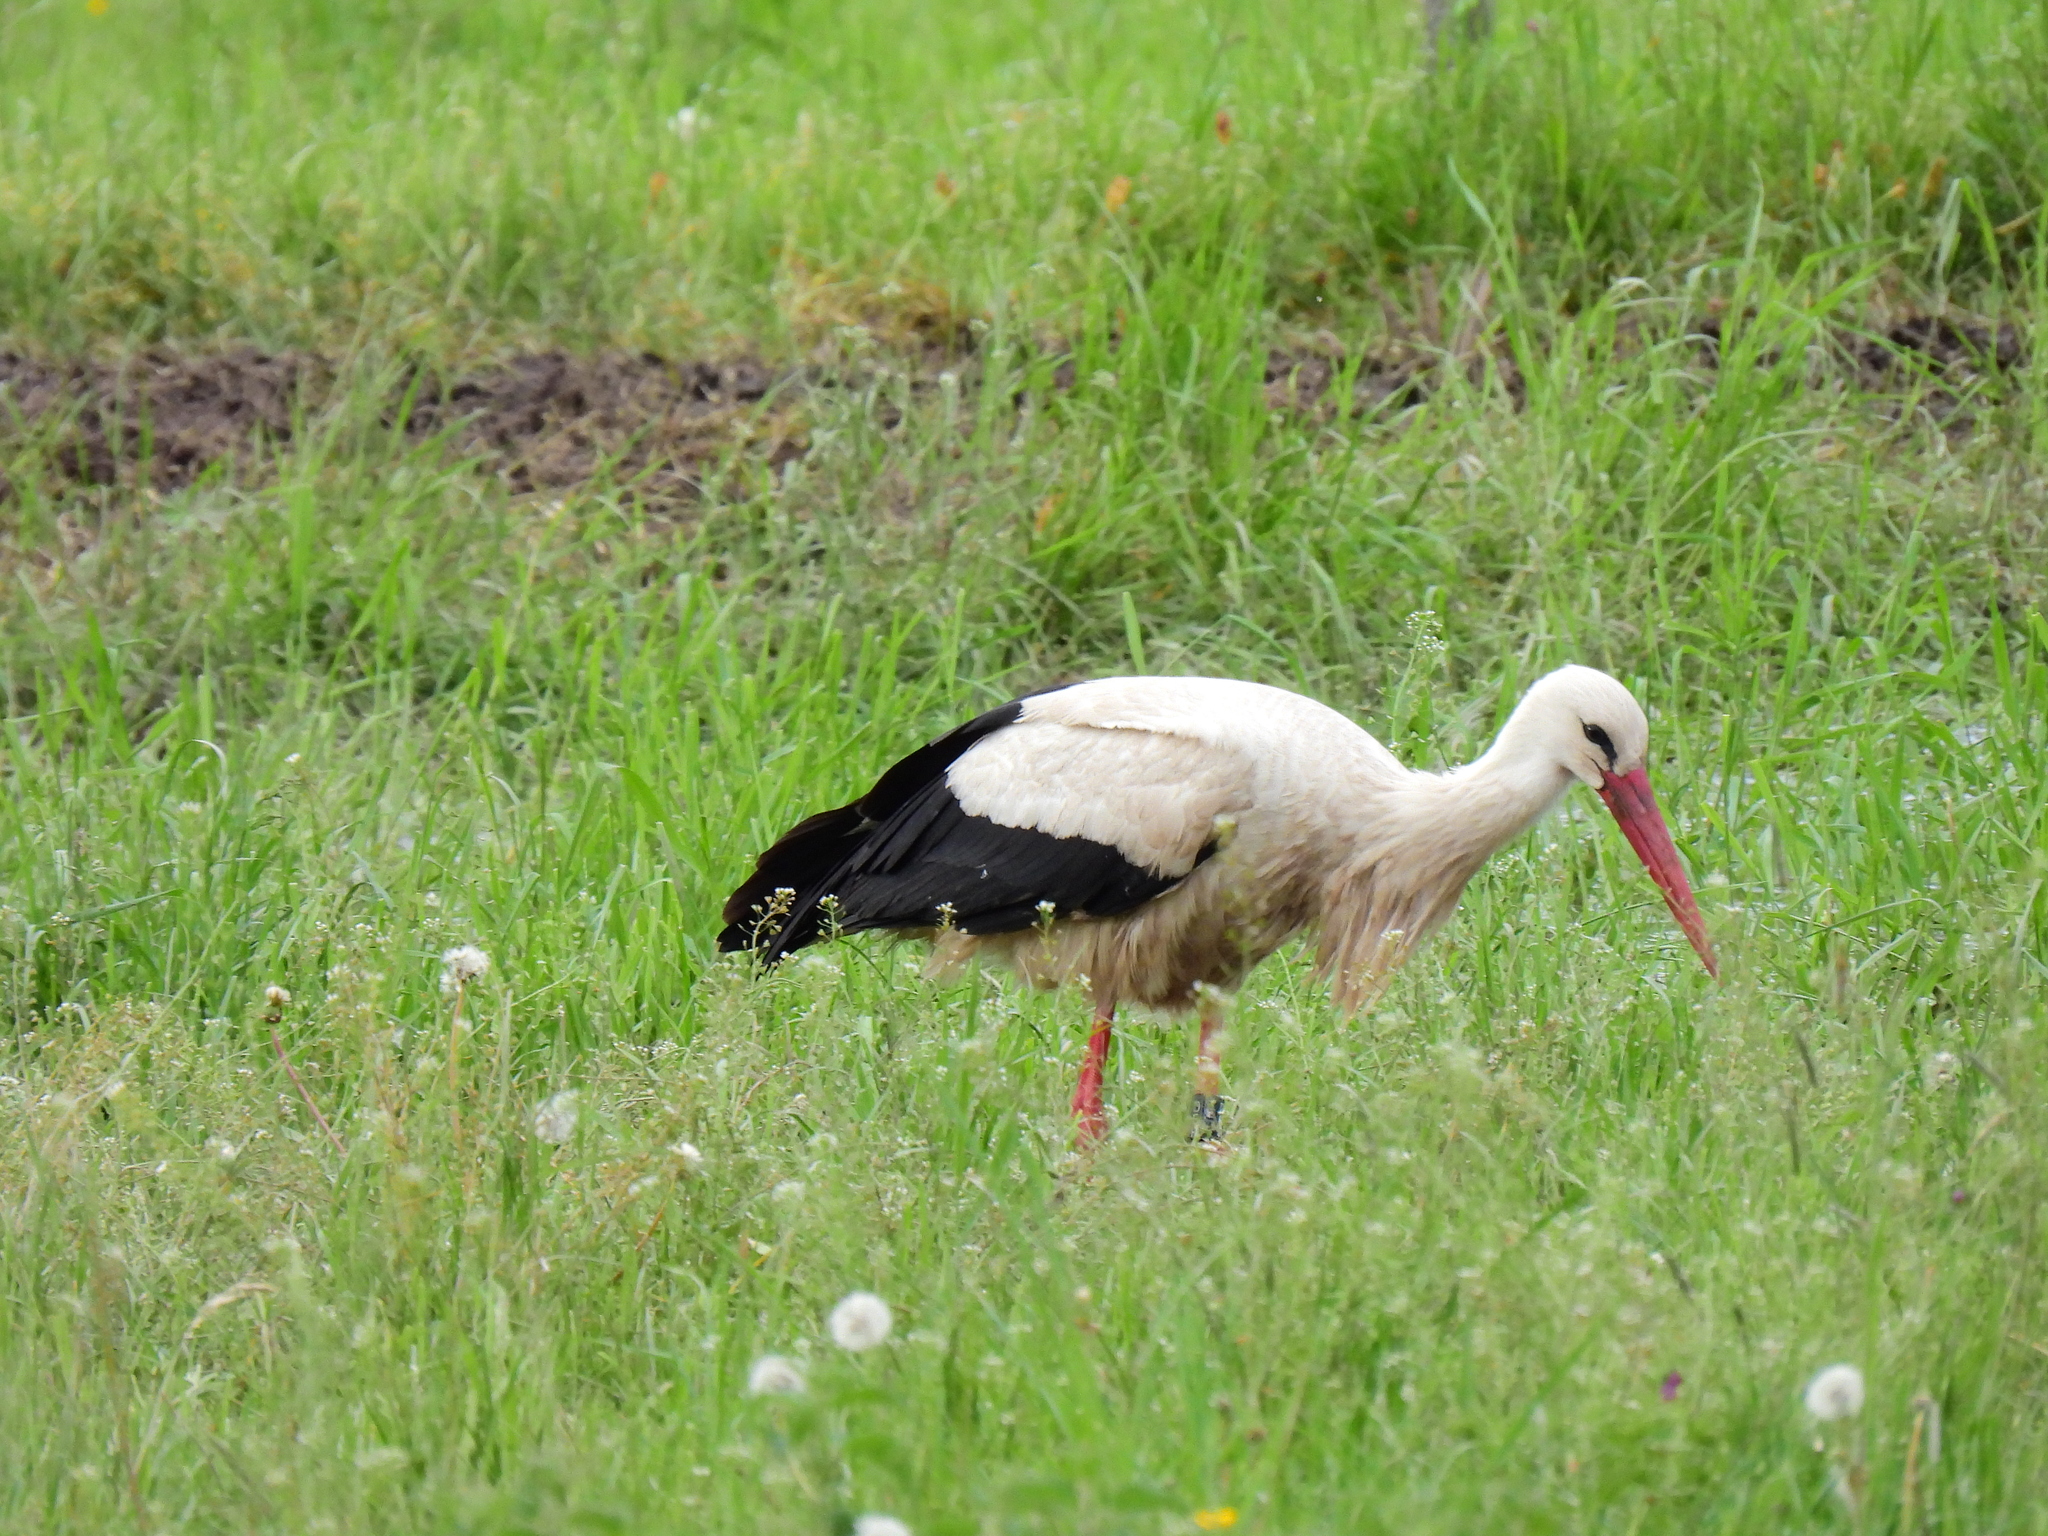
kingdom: Animalia
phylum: Chordata
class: Aves
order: Ciconiiformes
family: Ciconiidae
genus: Ciconia
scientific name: Ciconia ciconia
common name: White stork
